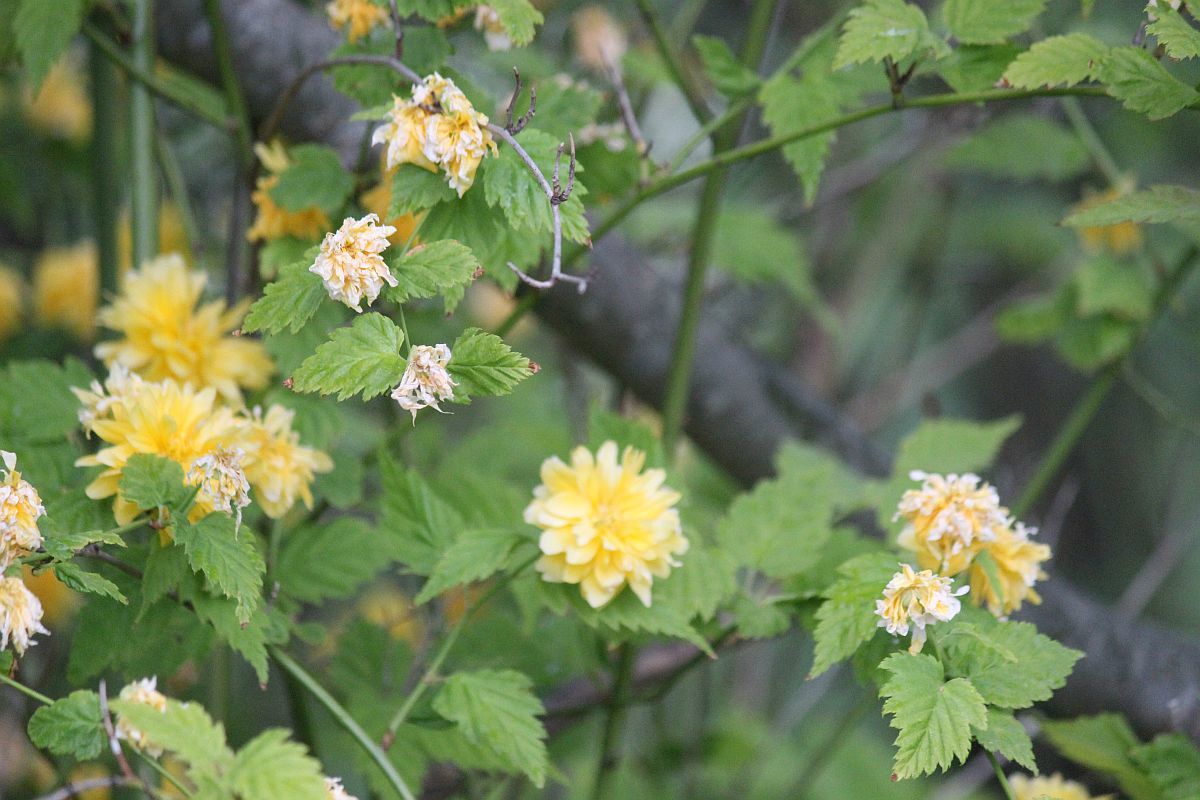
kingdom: Plantae
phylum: Tracheophyta
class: Magnoliopsida
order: Rosales
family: Rosaceae
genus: Kerria
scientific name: Kerria japonica
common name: Japanese kerria
